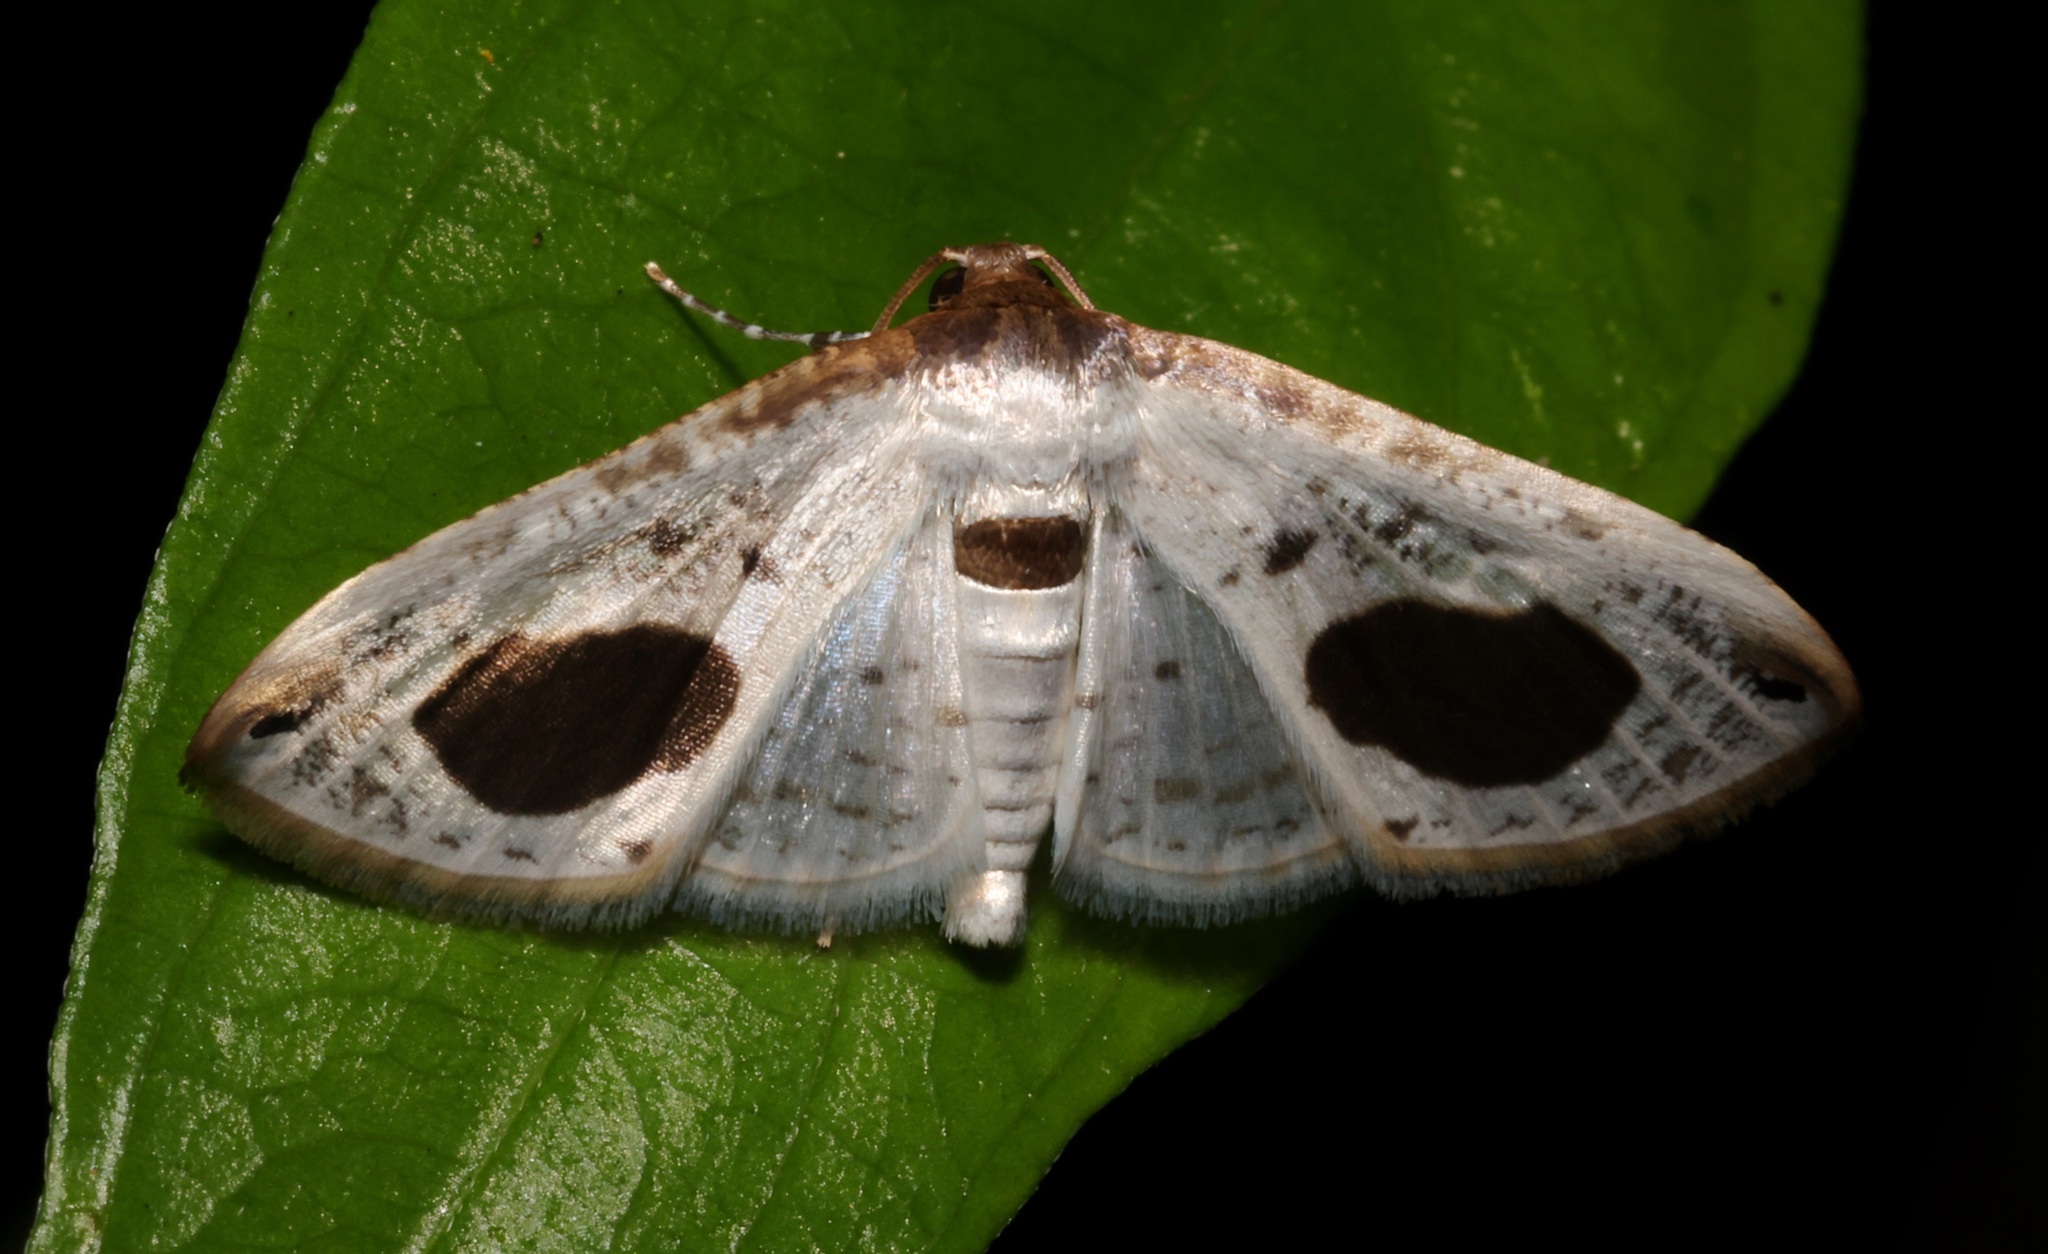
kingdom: Animalia
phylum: Arthropoda
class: Insecta
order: Lepidoptera
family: Thyrididae
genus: Calindoea
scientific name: Calindoea
